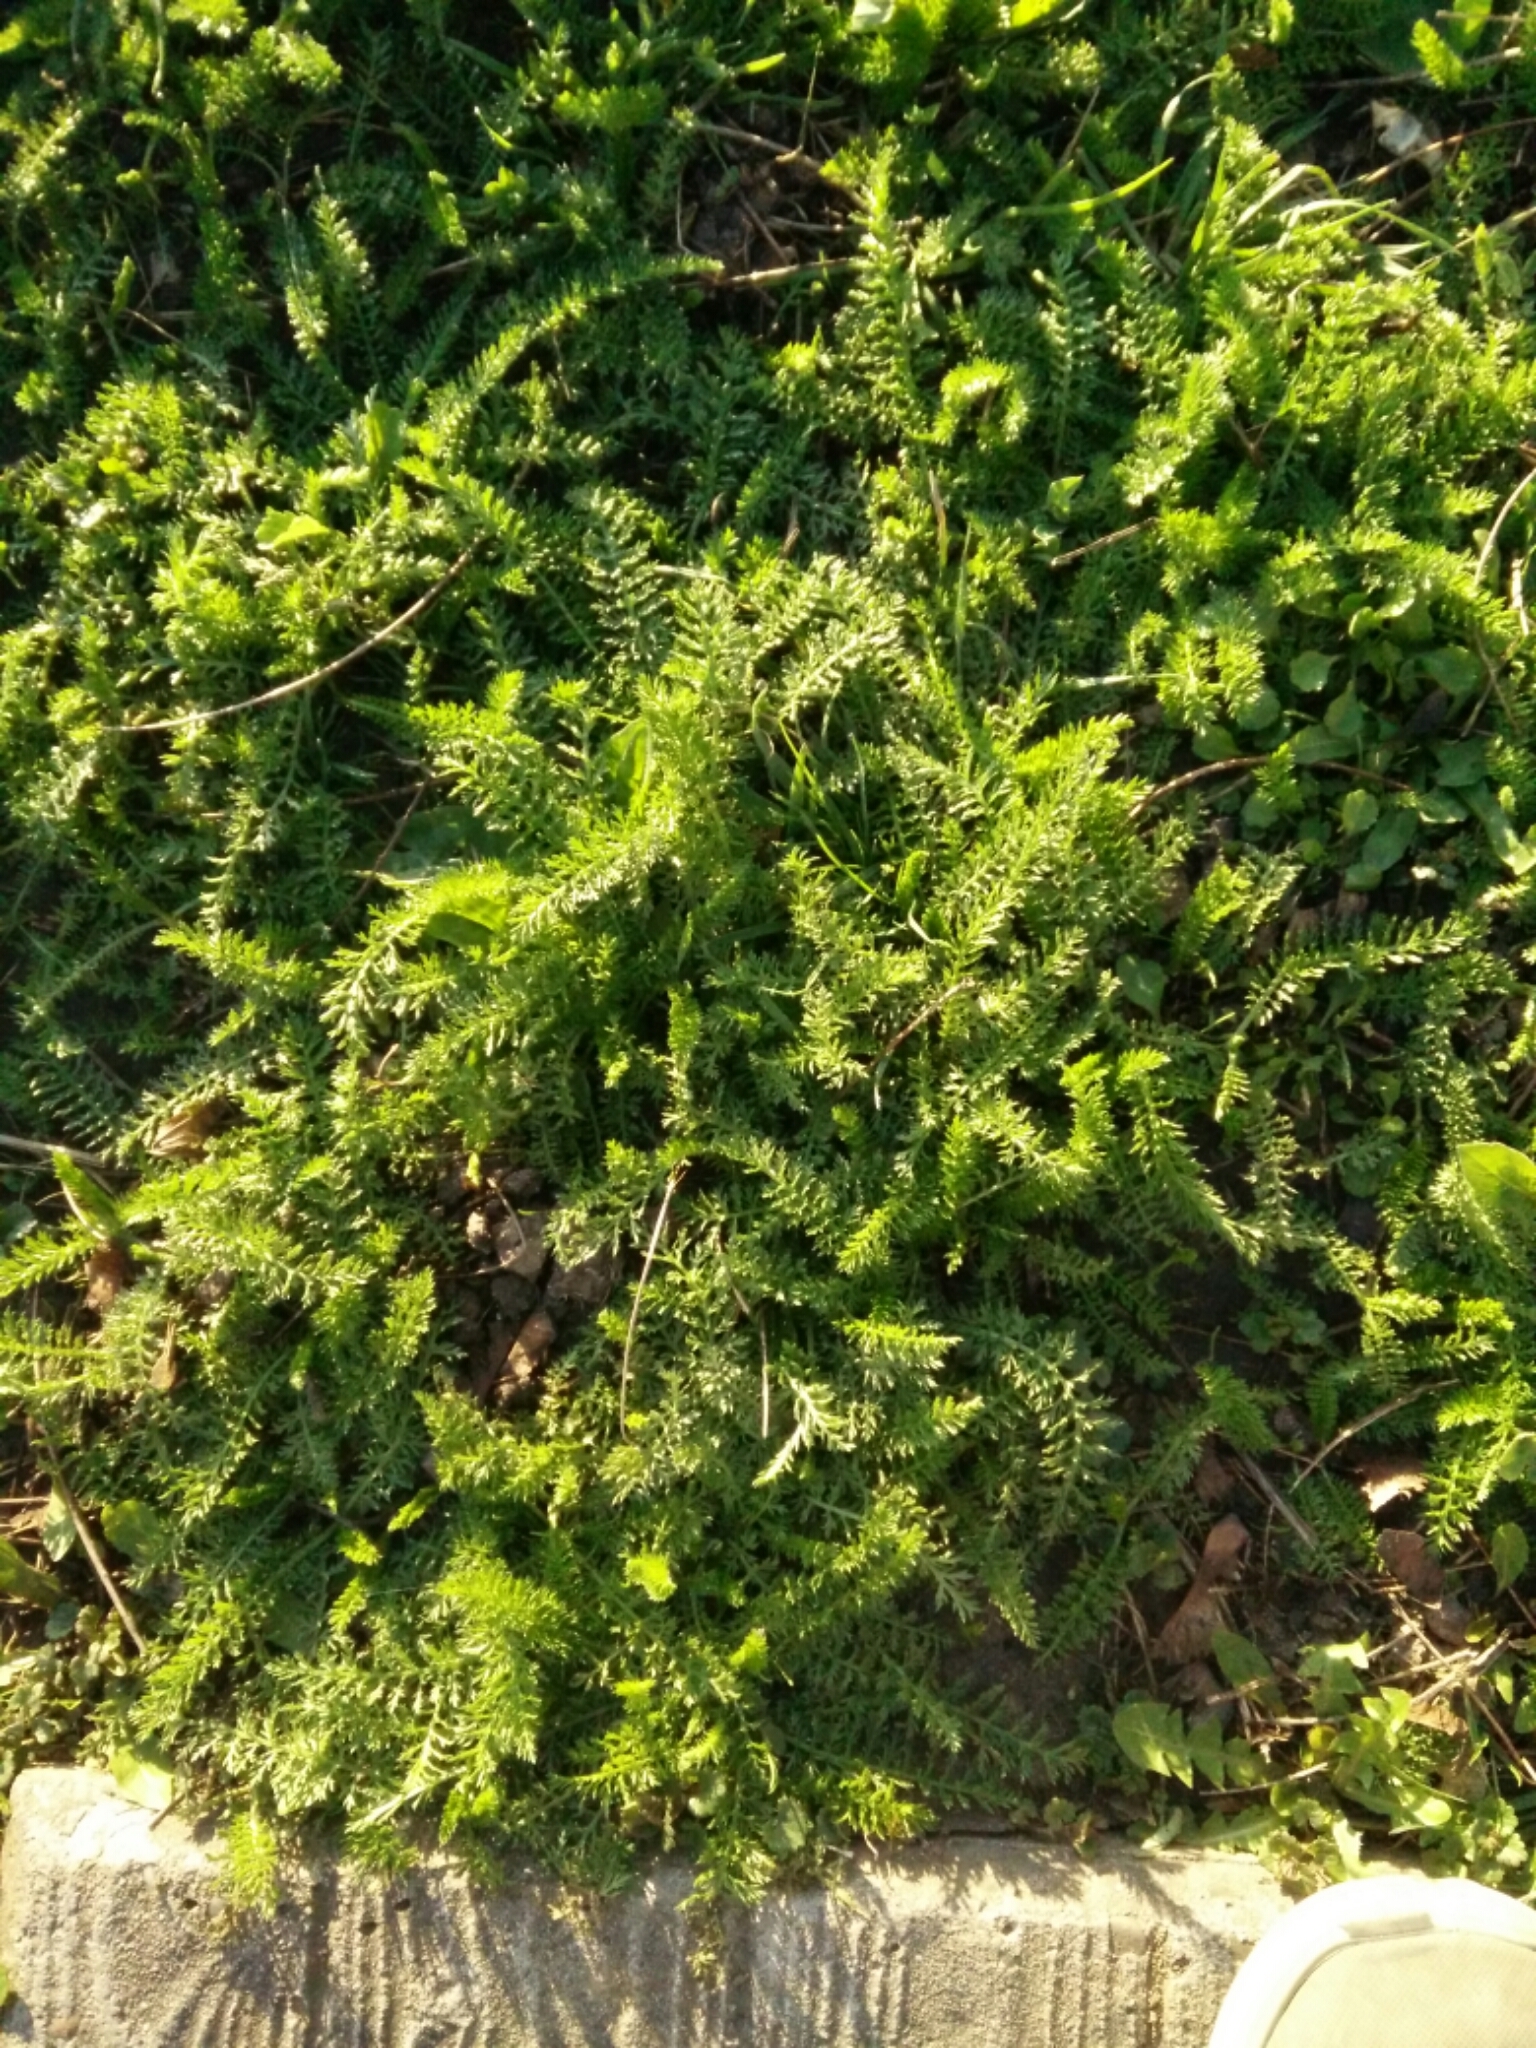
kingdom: Plantae
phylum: Tracheophyta
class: Magnoliopsida
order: Asterales
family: Asteraceae
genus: Achillea
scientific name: Achillea millefolium
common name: Yarrow
